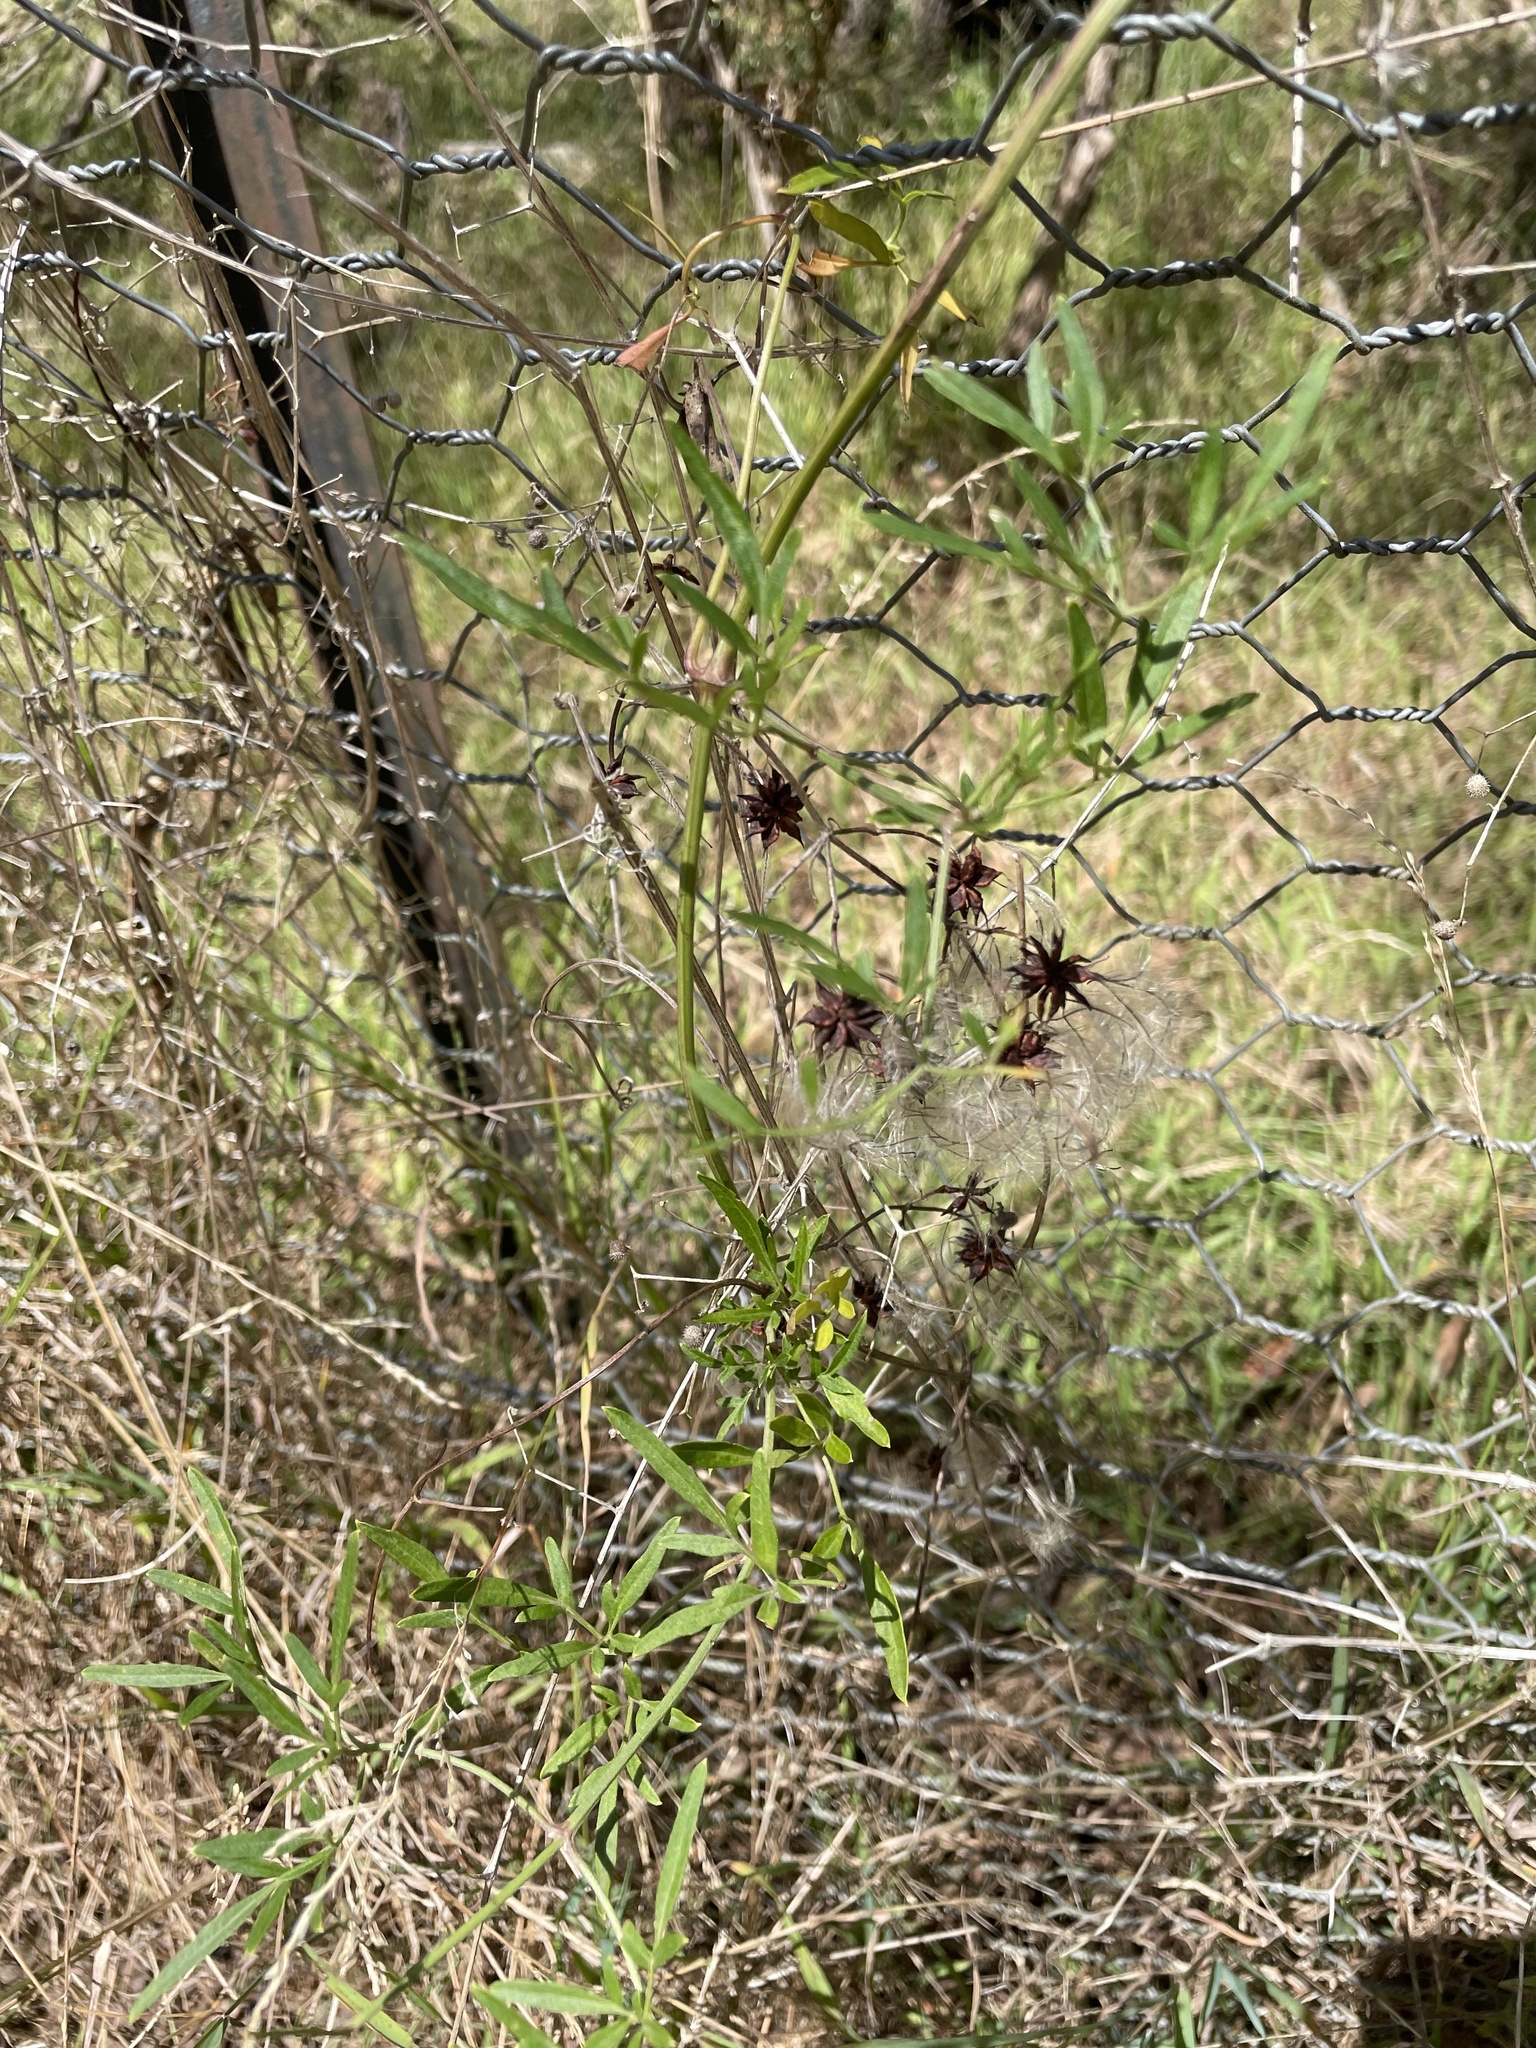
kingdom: Plantae
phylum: Tracheophyta
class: Magnoliopsida
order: Ranunculales
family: Ranunculaceae
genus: Clematis
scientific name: Clematis microphylla
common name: Headachevine
